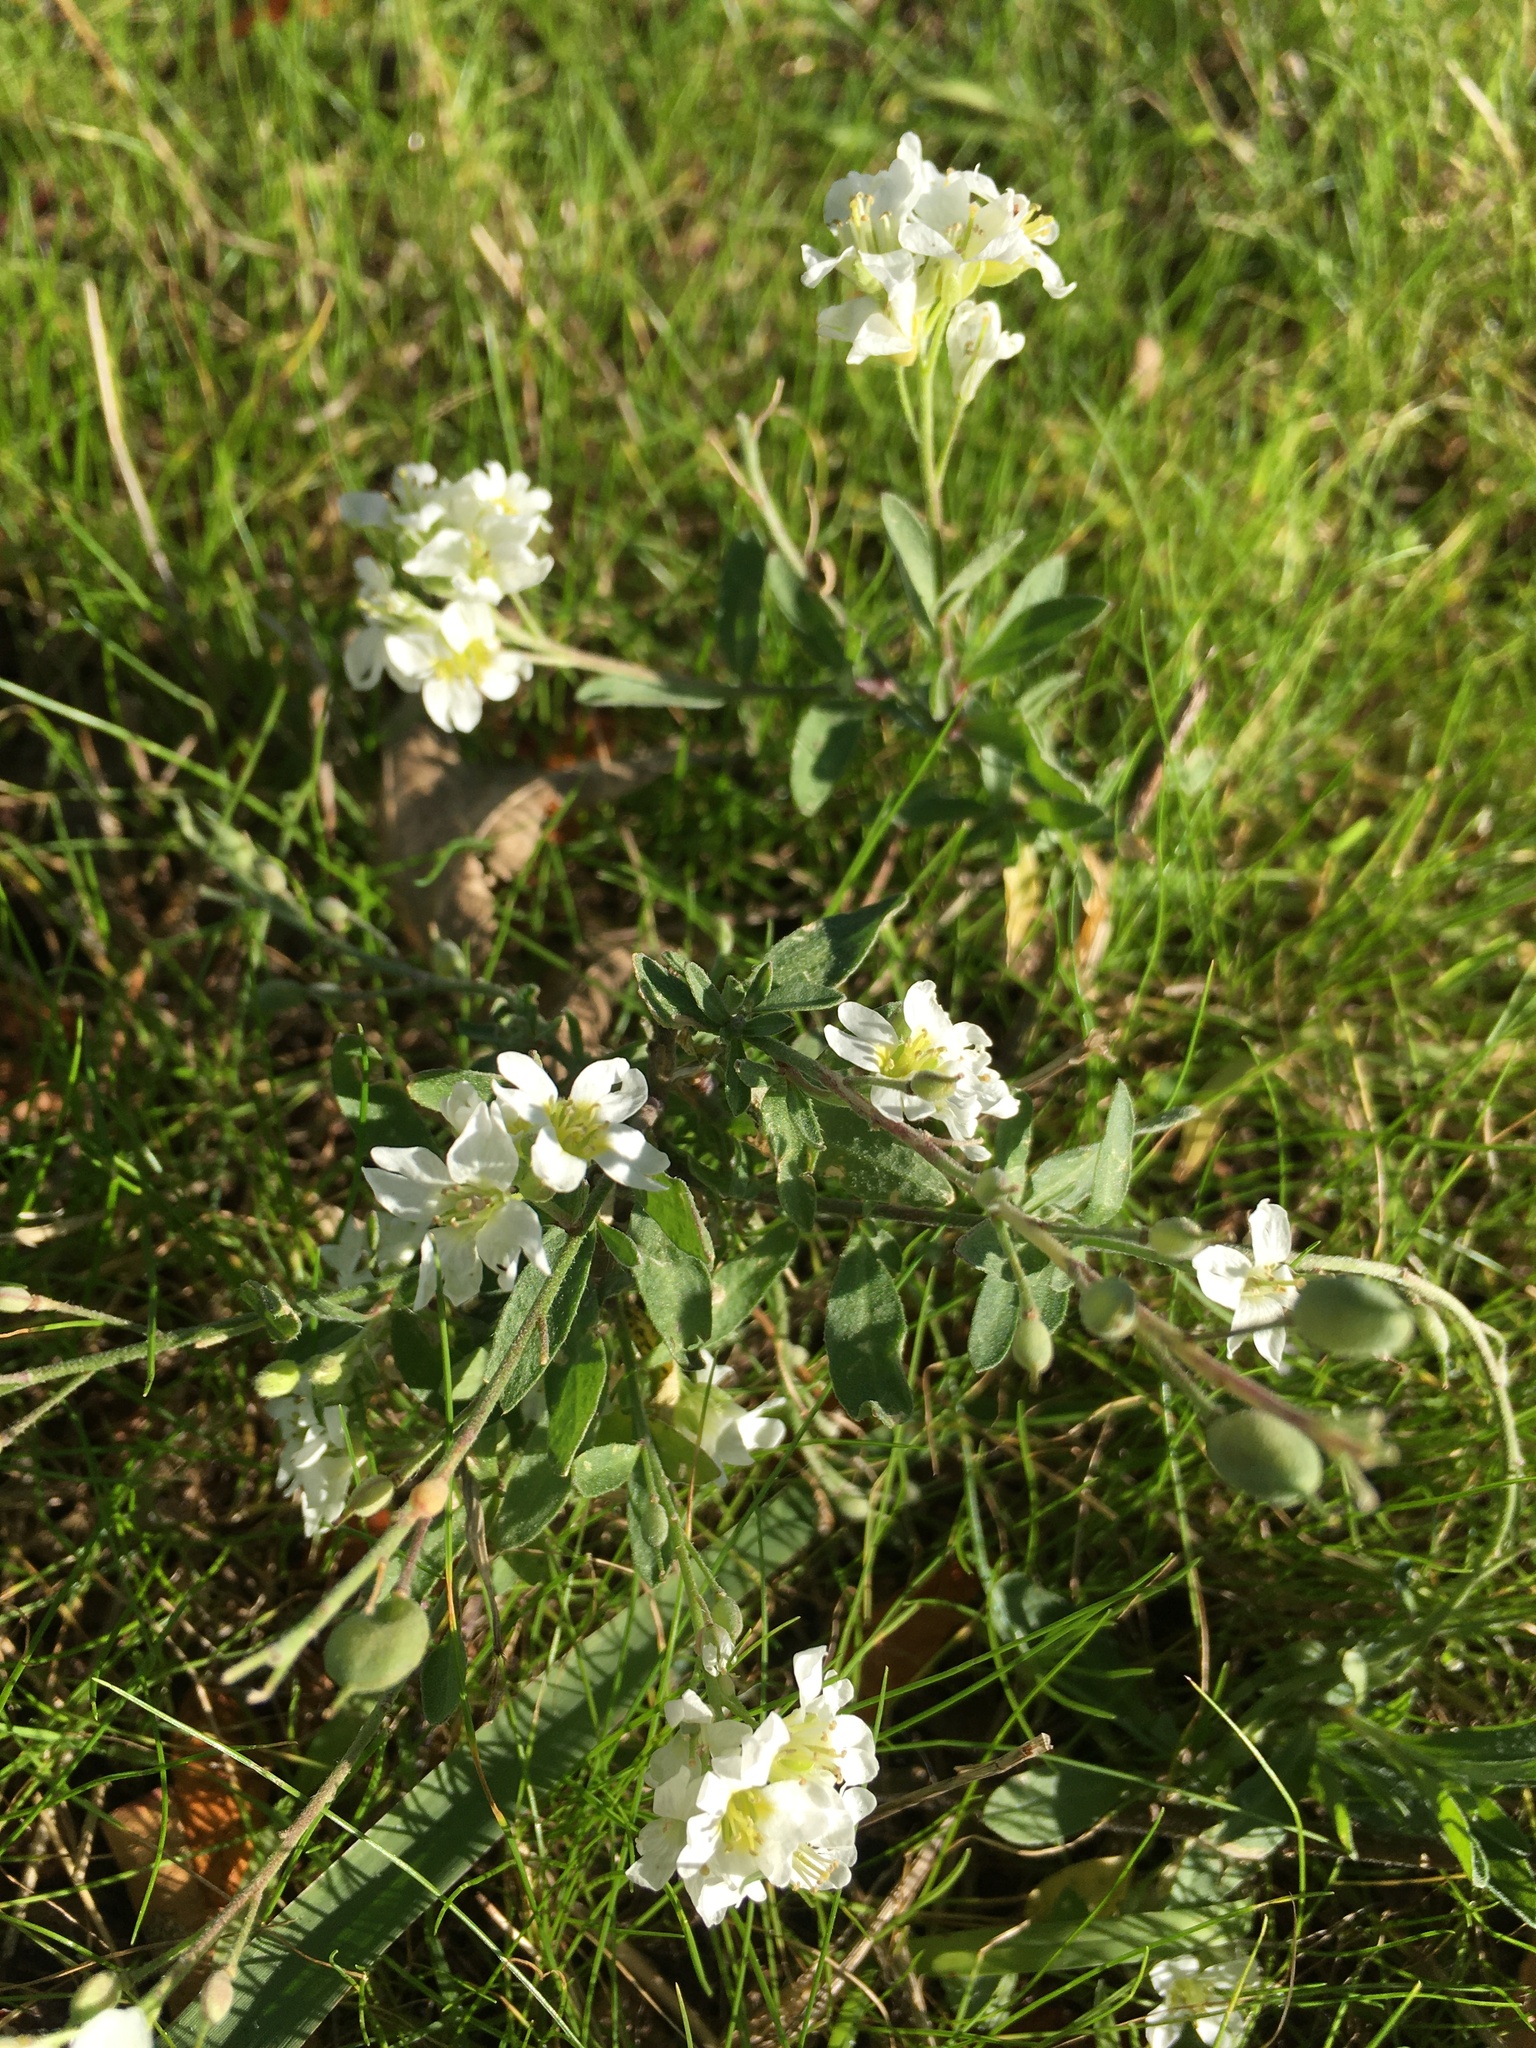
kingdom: Plantae
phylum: Tracheophyta
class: Magnoliopsida
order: Brassicales
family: Brassicaceae
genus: Berteroa
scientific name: Berteroa incana
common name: Hoary alison
